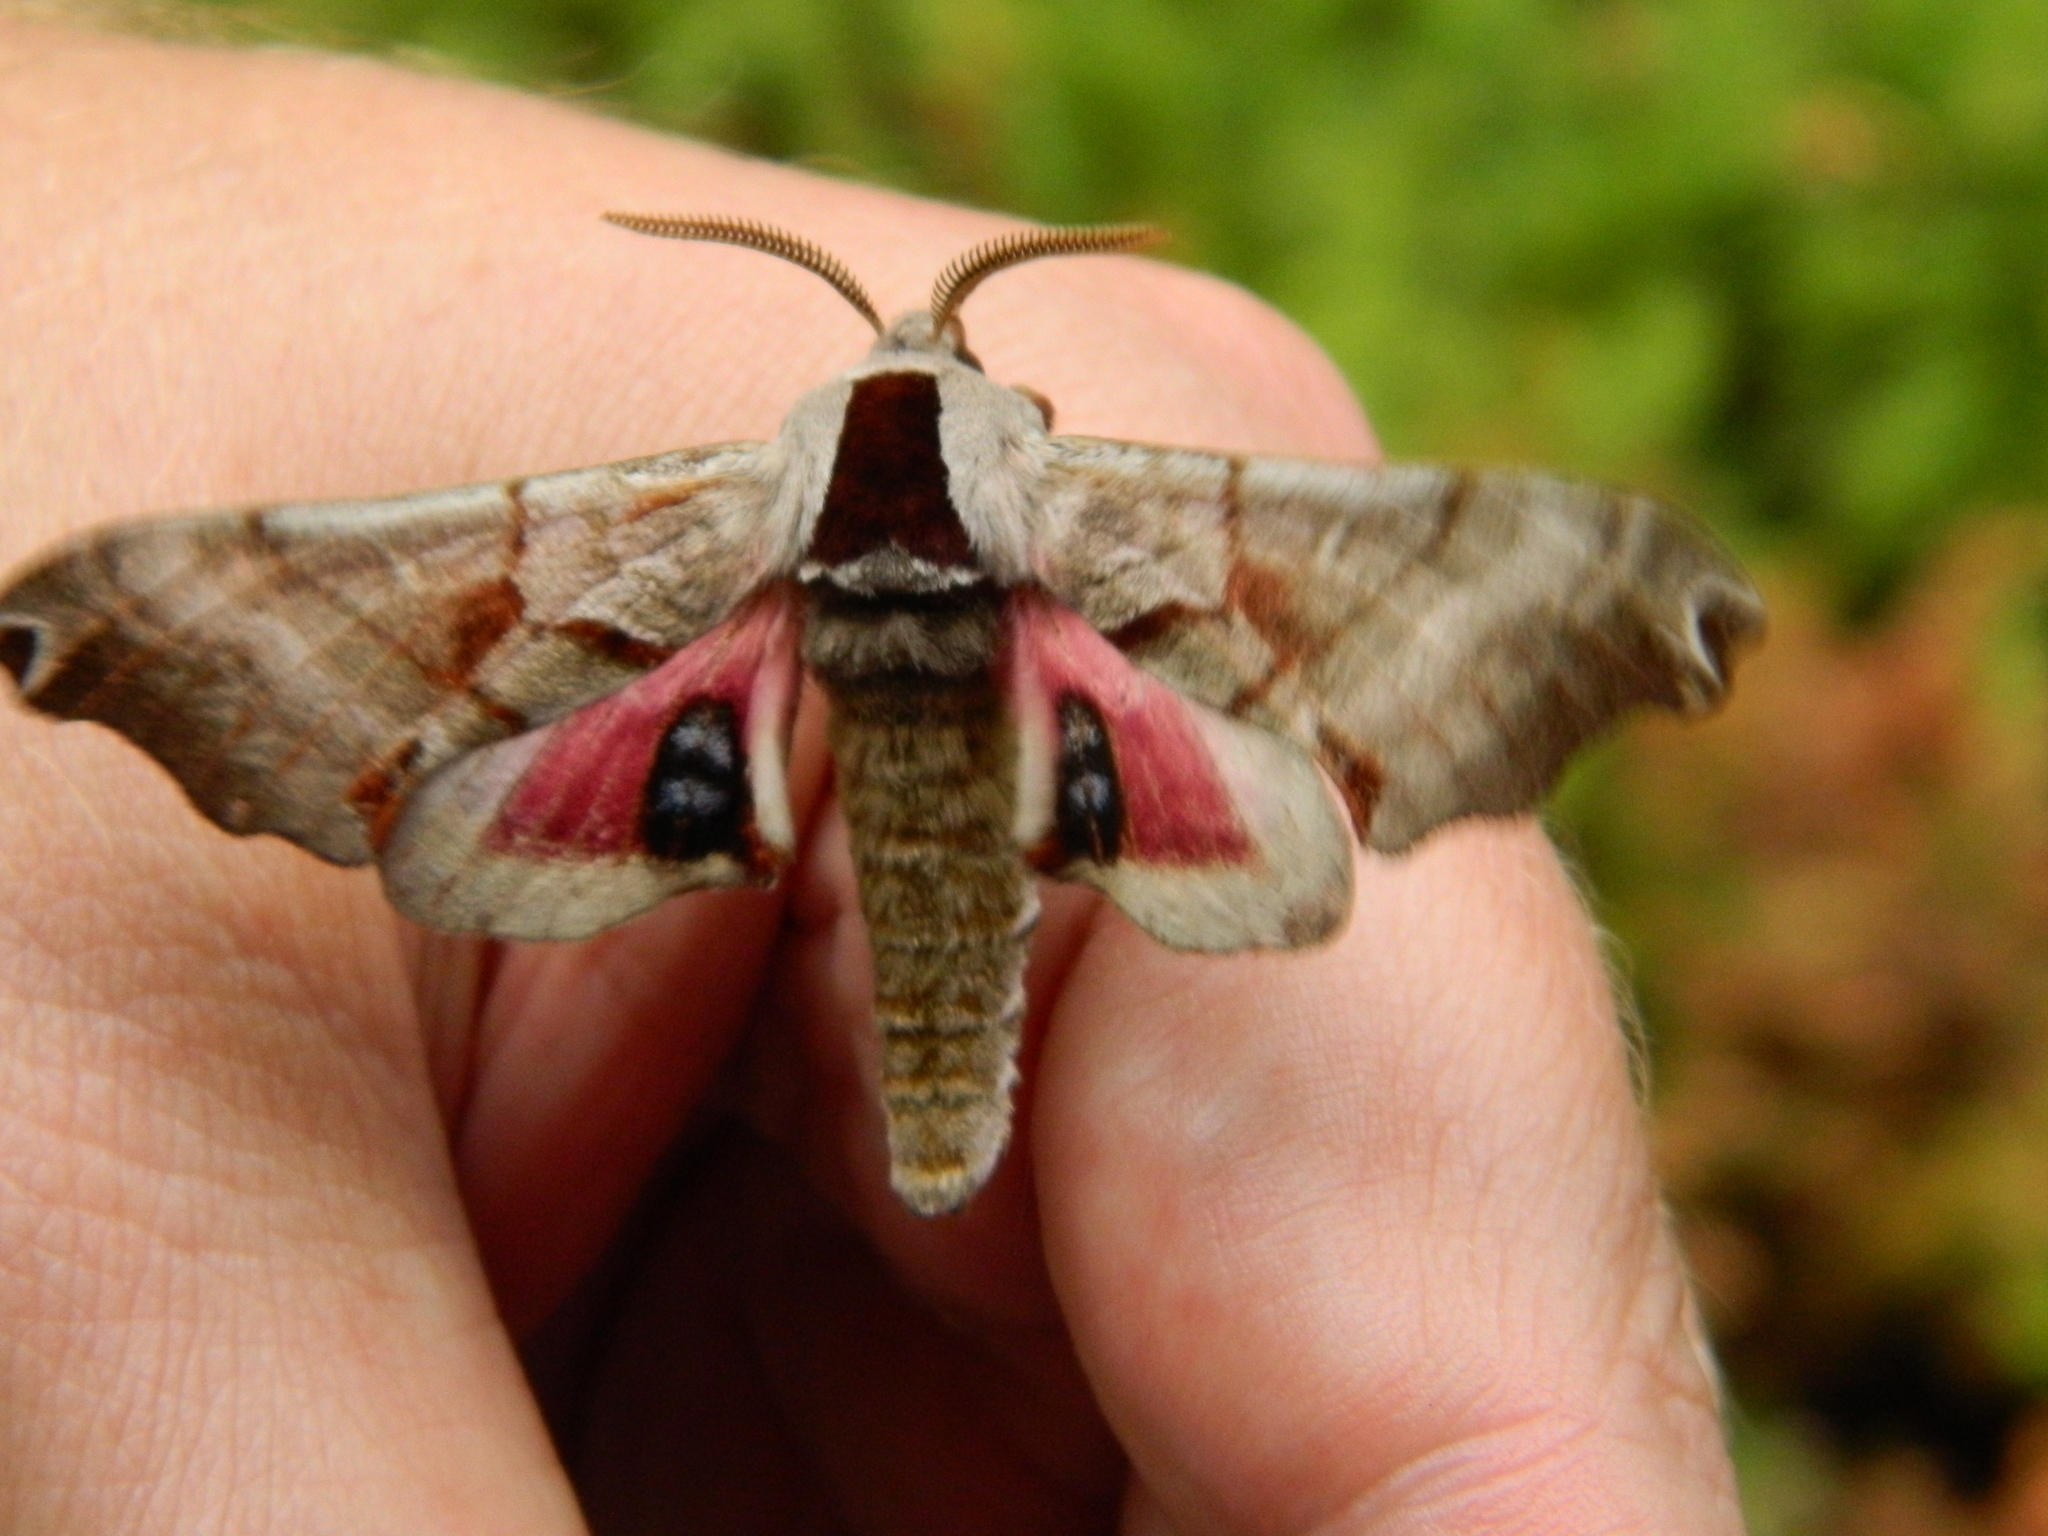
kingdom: Animalia
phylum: Arthropoda
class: Insecta
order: Lepidoptera
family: Sphingidae
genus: Smerinthus
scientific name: Smerinthus jamaicensis
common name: Twin spotted sphinx
